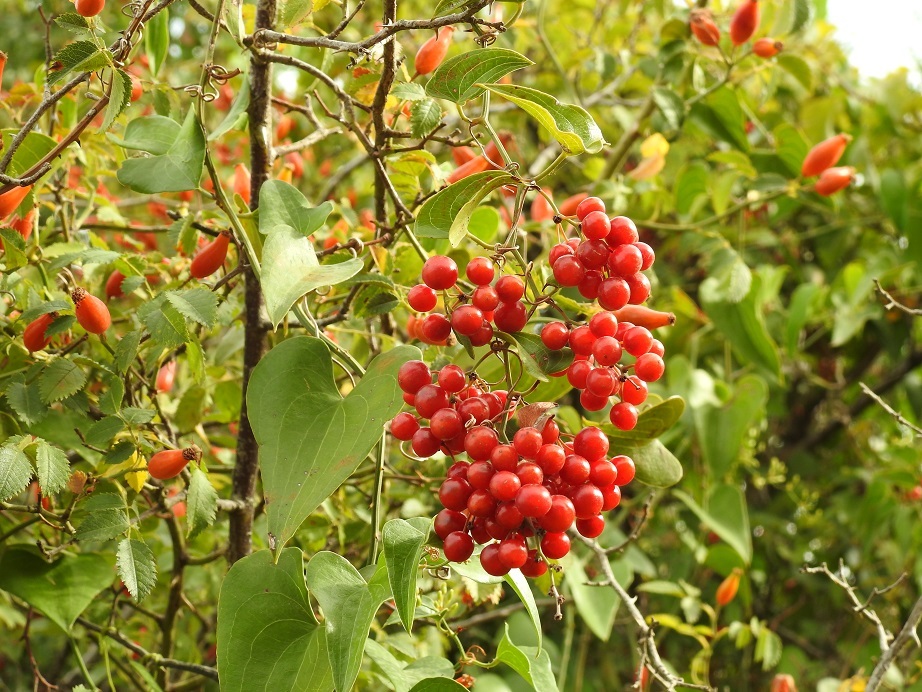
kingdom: Plantae
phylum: Tracheophyta
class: Liliopsida
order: Liliales
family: Smilacaceae
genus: Smilax
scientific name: Smilax aspera
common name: Common smilax
